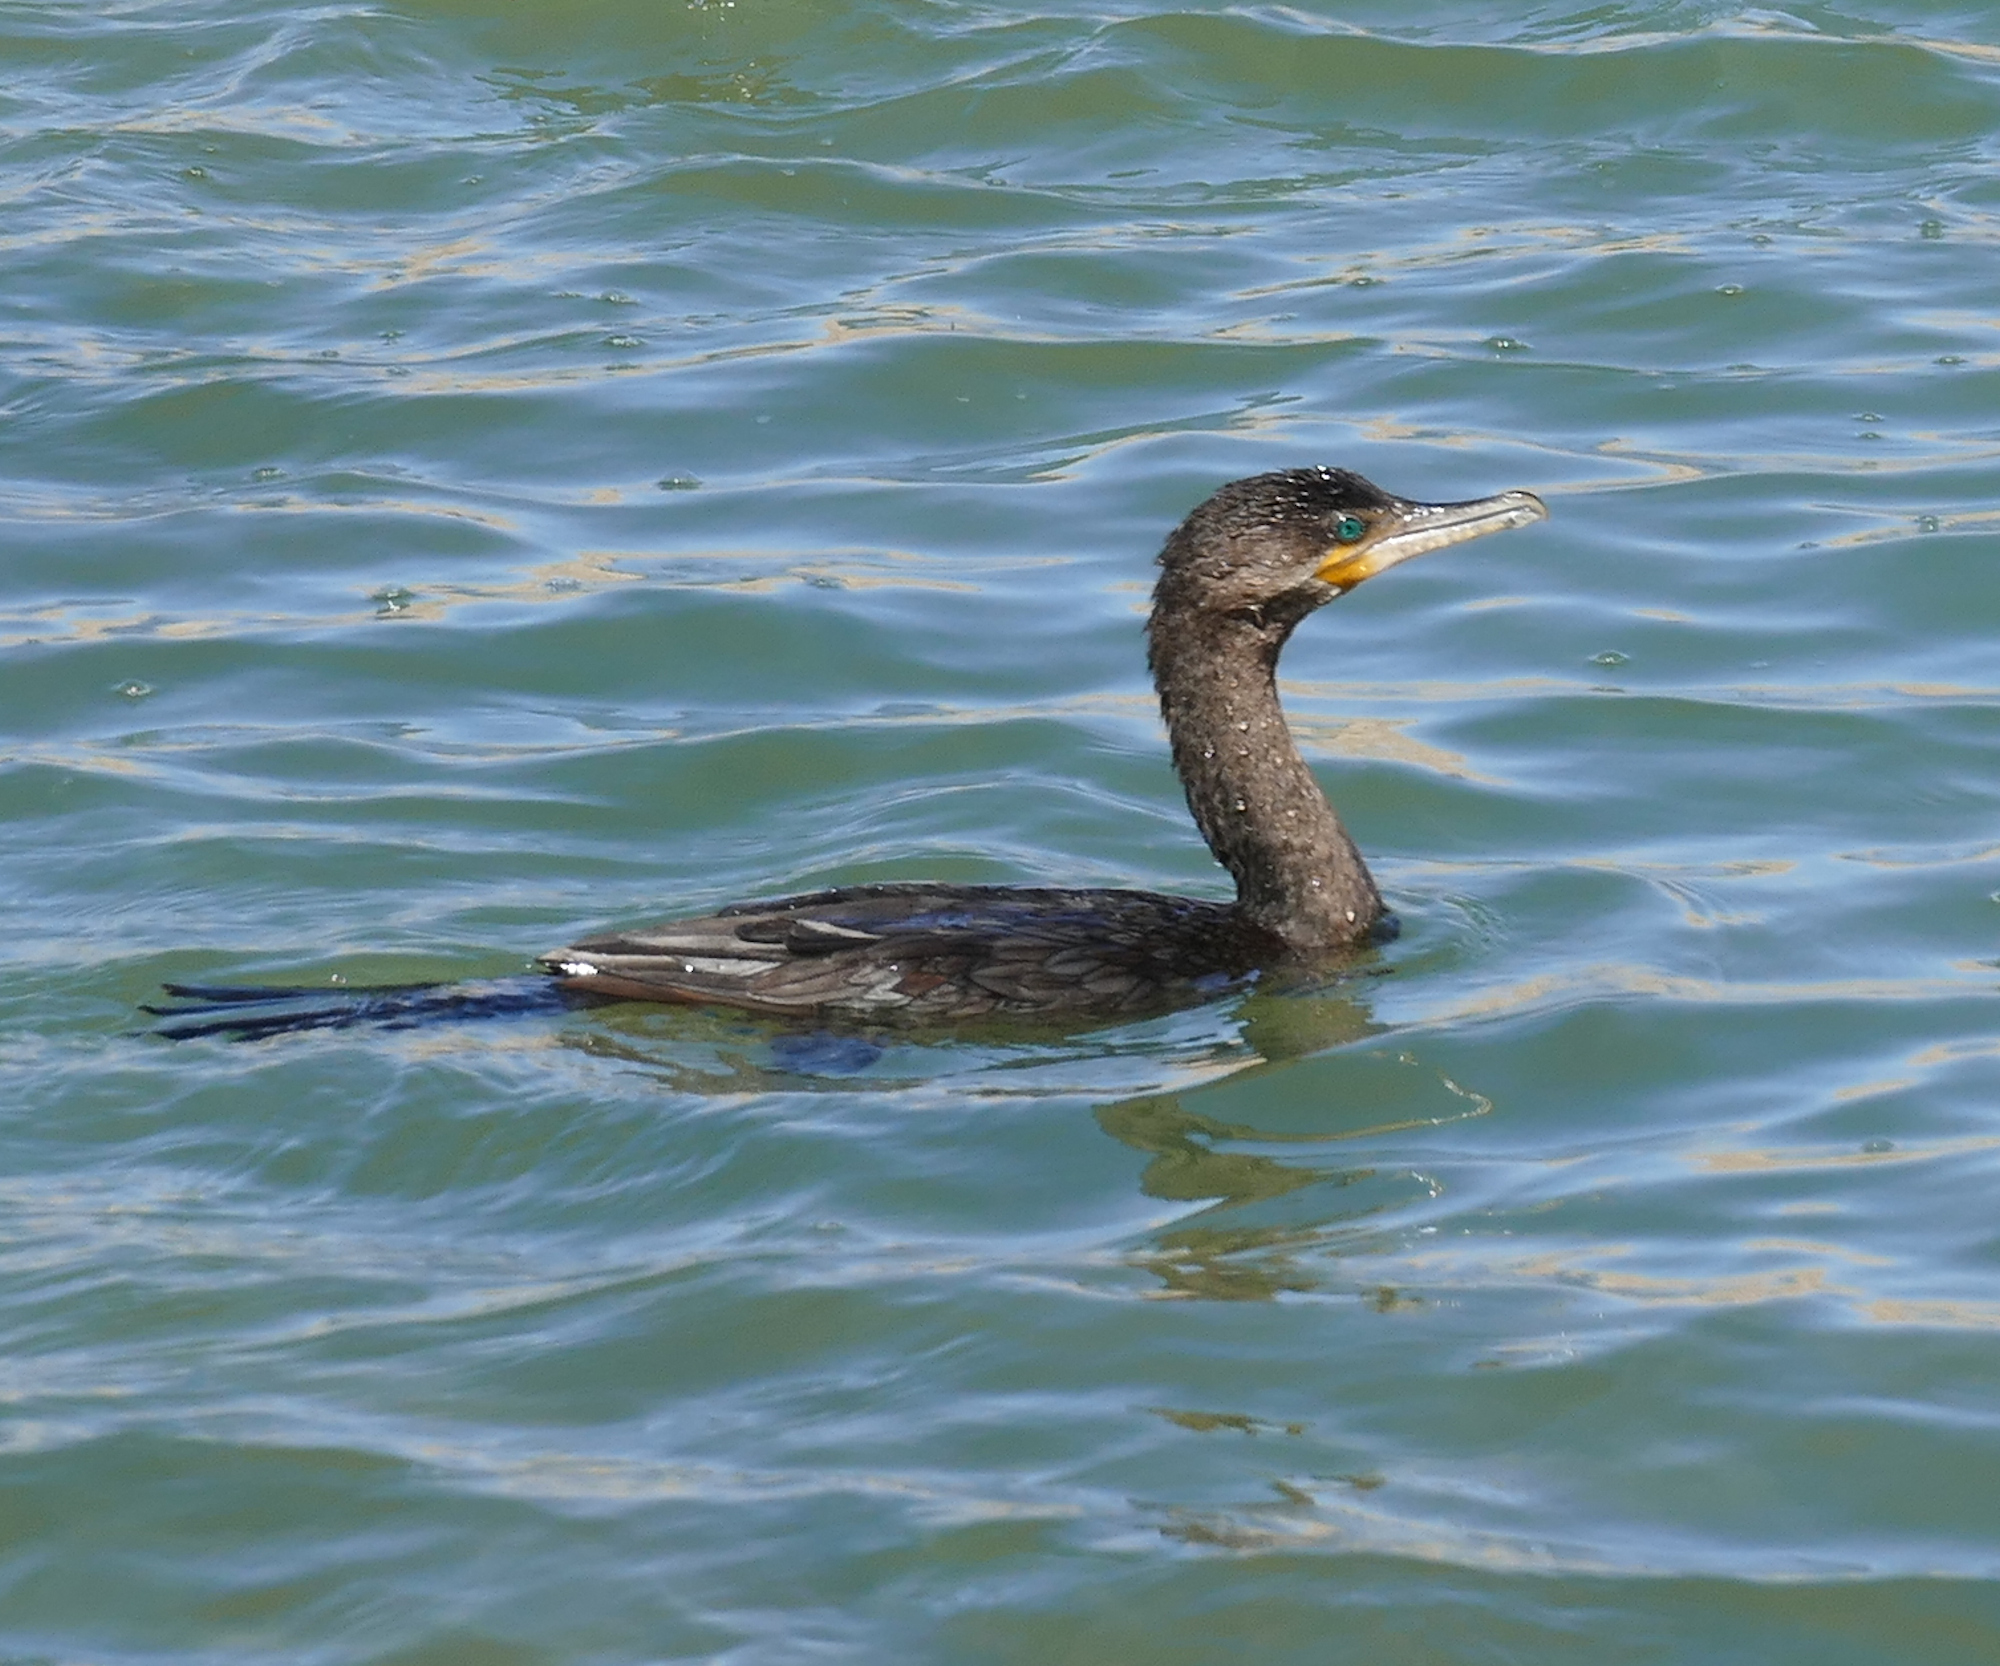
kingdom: Animalia
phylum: Chordata
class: Aves
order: Suliformes
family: Phalacrocoracidae
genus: Phalacrocorax
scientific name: Phalacrocorax brasilianus
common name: Neotropic cormorant
